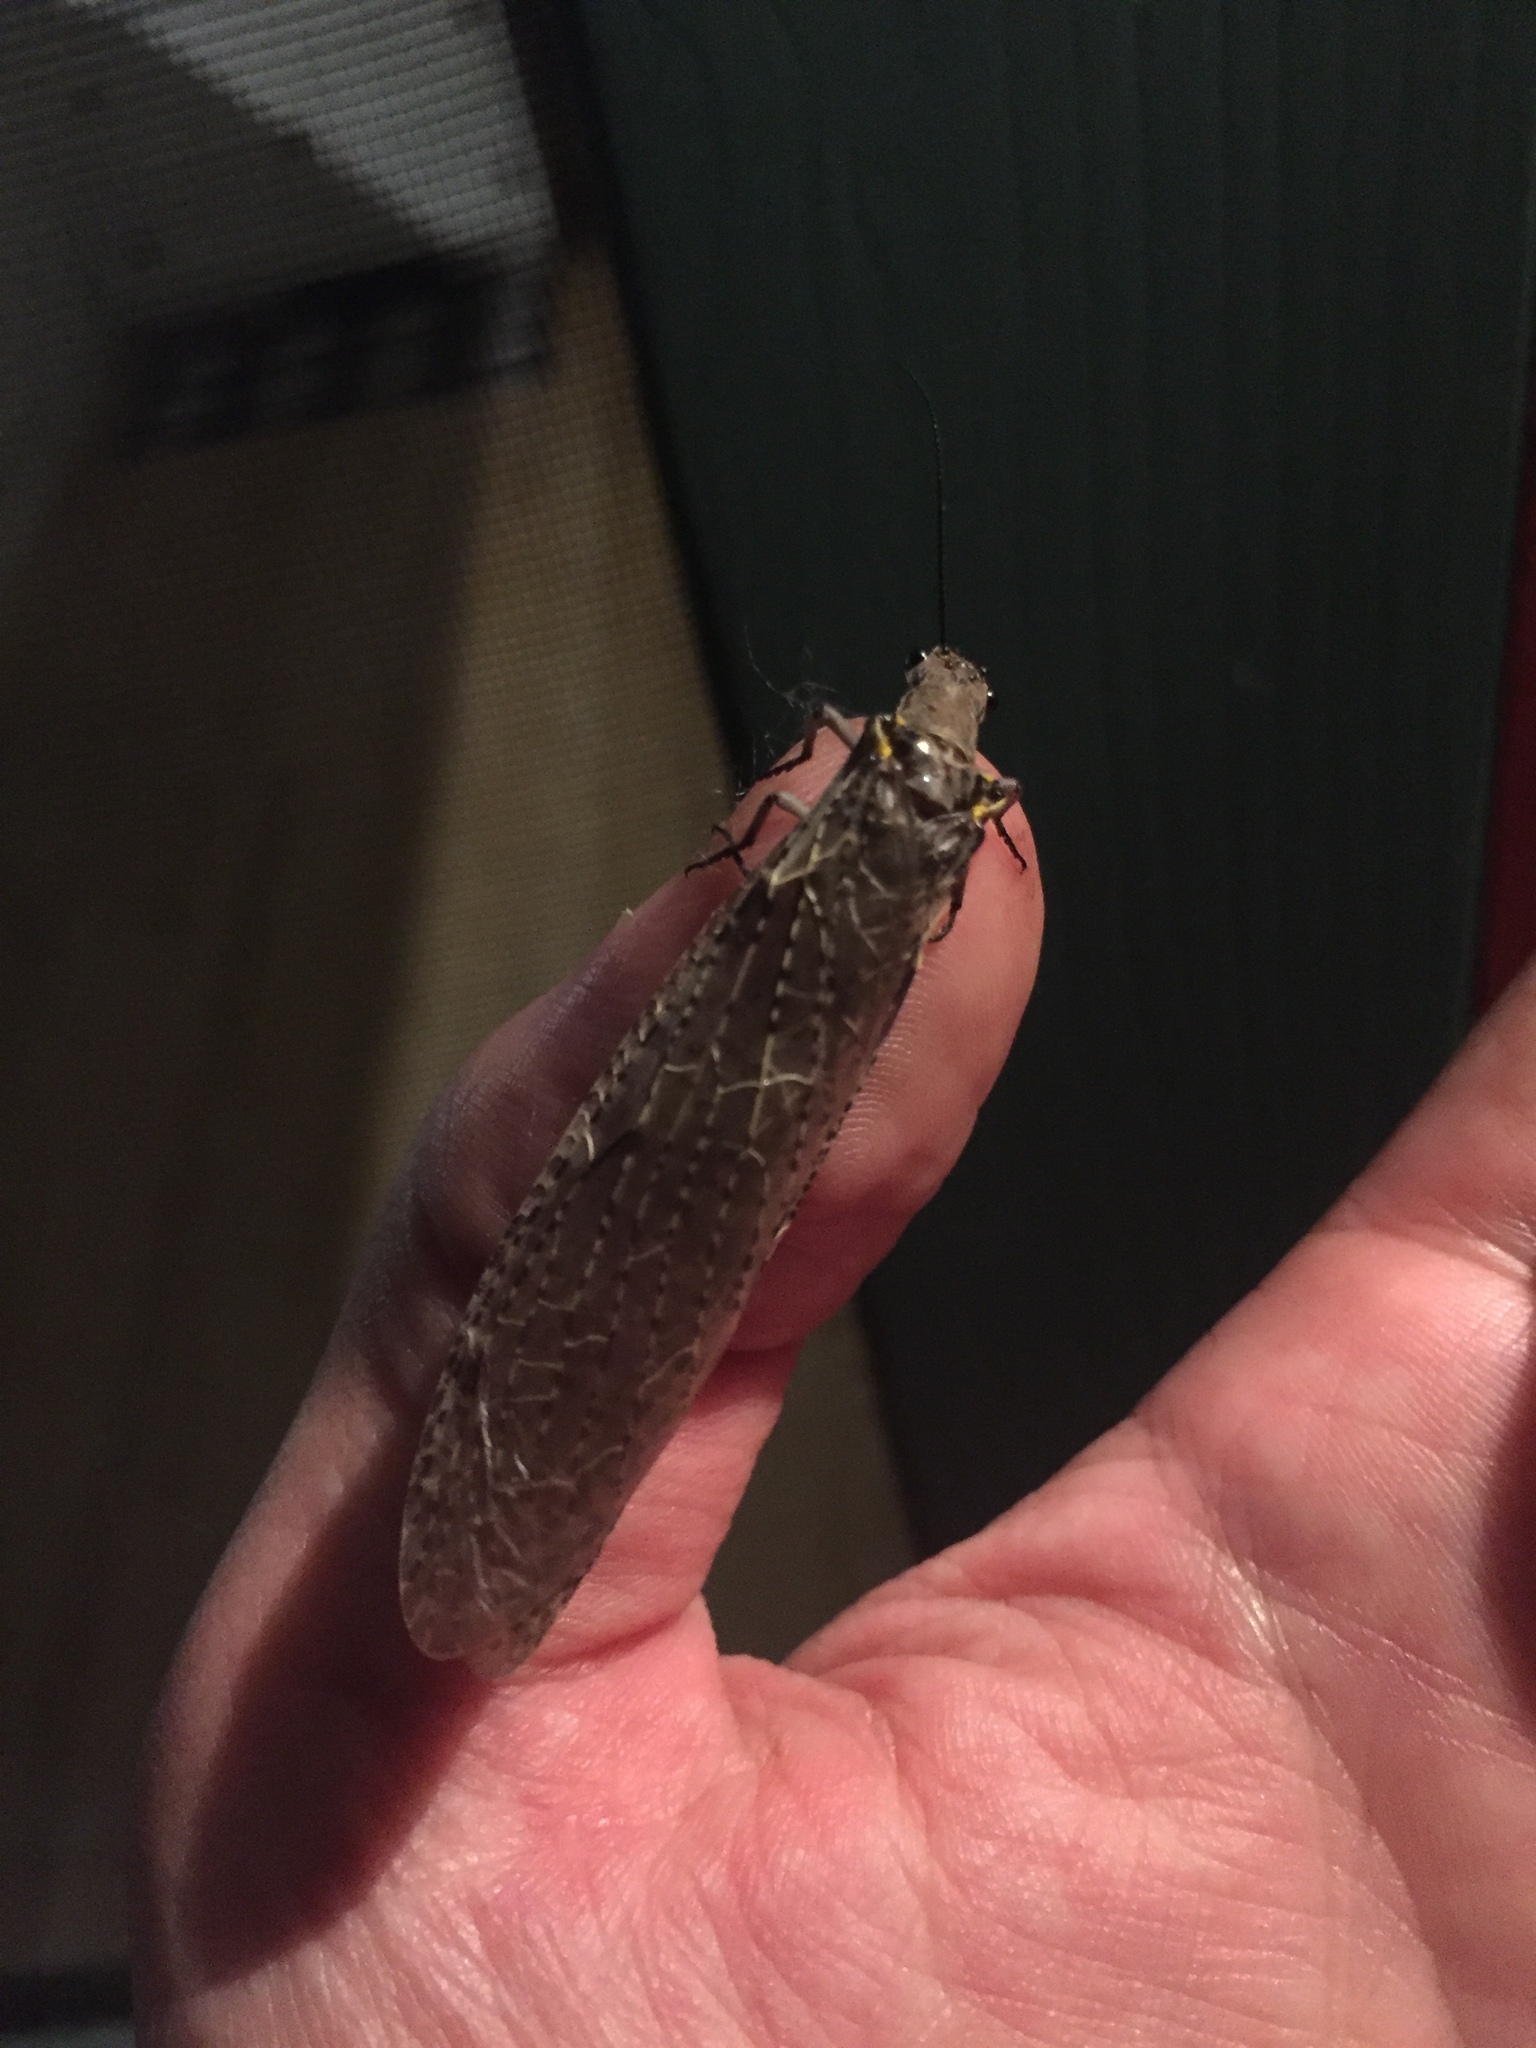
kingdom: Animalia
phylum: Arthropoda
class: Insecta
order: Megaloptera
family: Corydalidae
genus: Chauliodes
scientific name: Chauliodes rastricornis
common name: Spring fishfly
